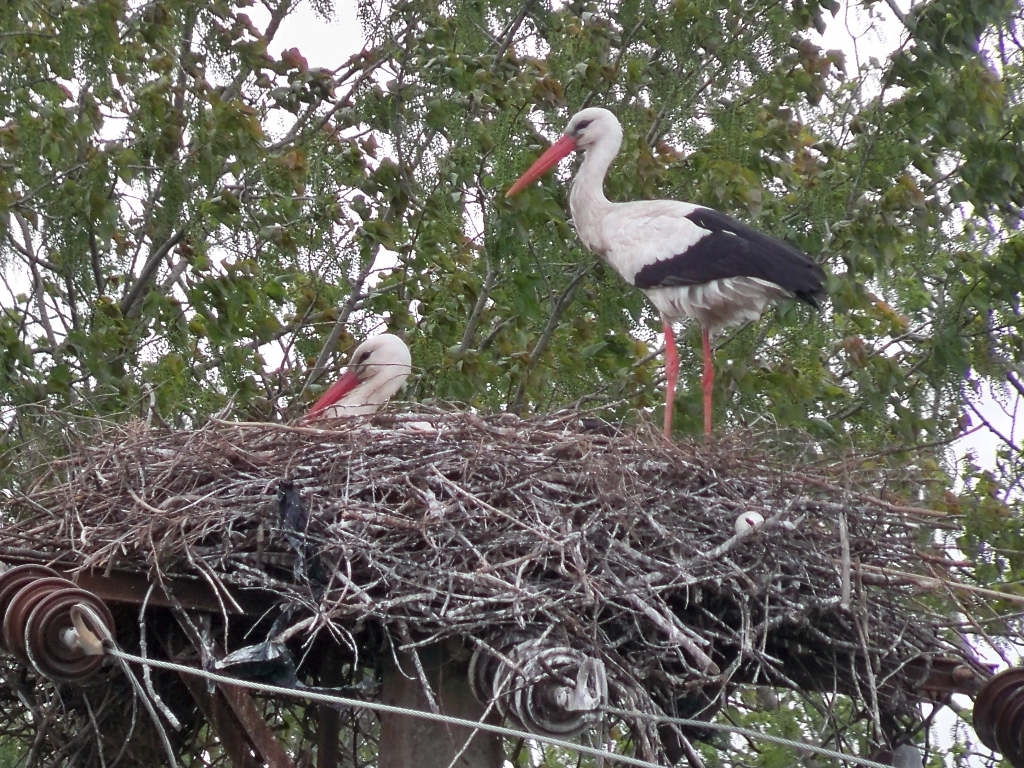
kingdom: Animalia
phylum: Chordata
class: Aves
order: Ciconiiformes
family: Ciconiidae
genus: Ciconia
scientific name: Ciconia ciconia
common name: White stork
